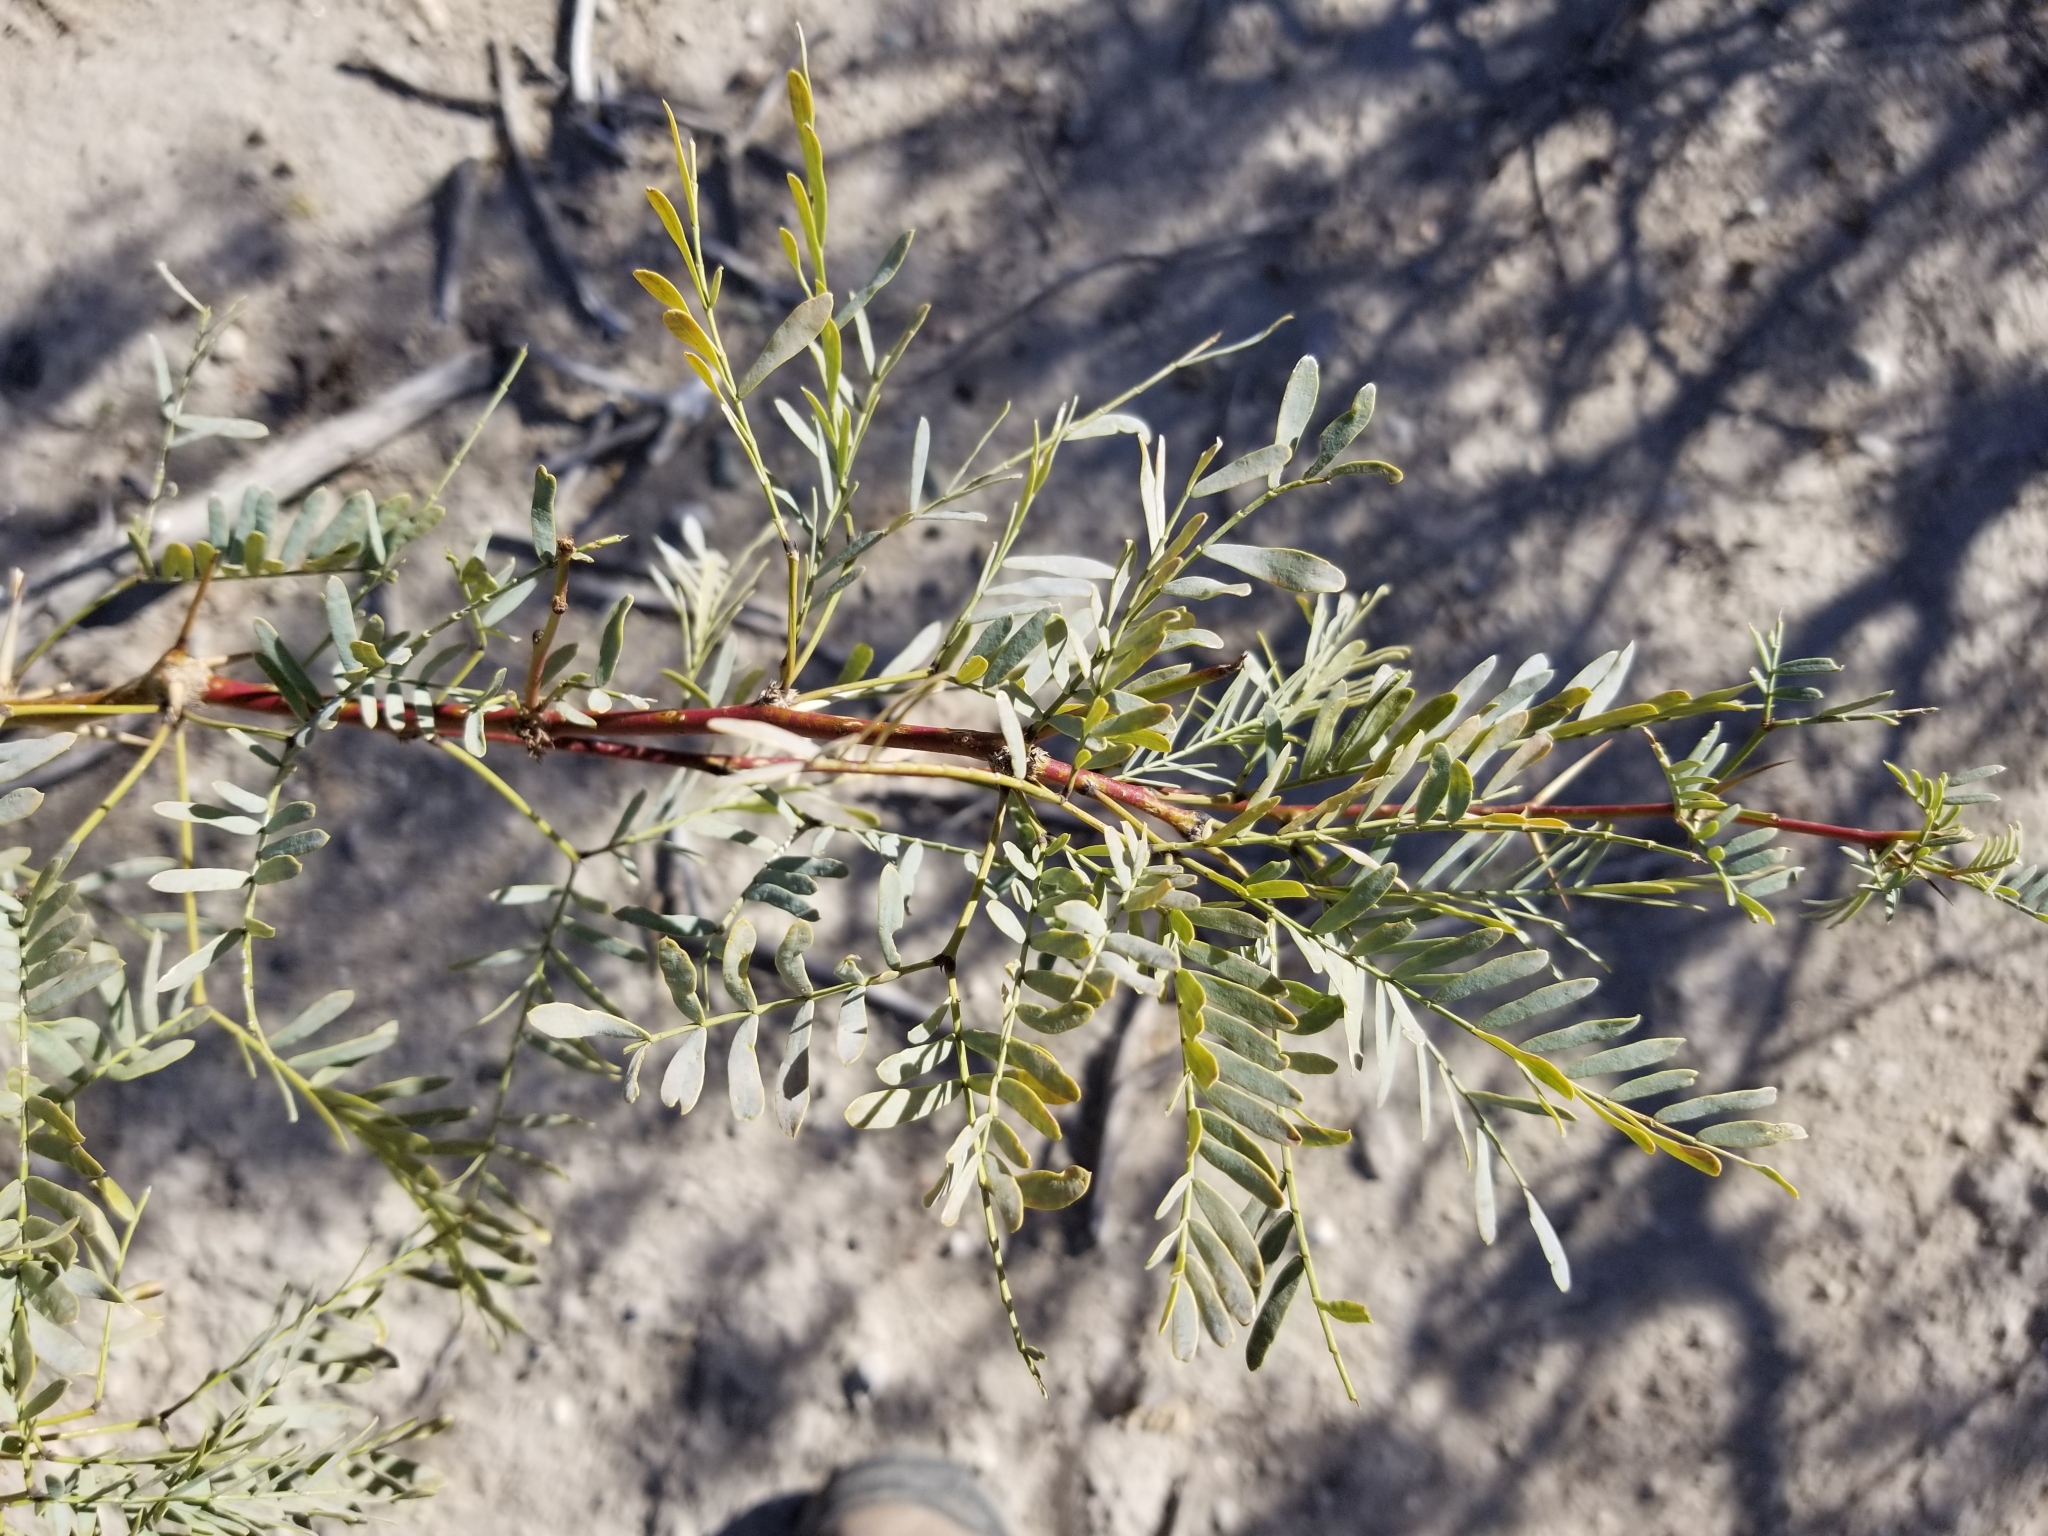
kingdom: Plantae
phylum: Tracheophyta
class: Magnoliopsida
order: Fabales
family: Fabaceae
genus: Prosopis
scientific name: Prosopis pubescens
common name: Screw-bean
